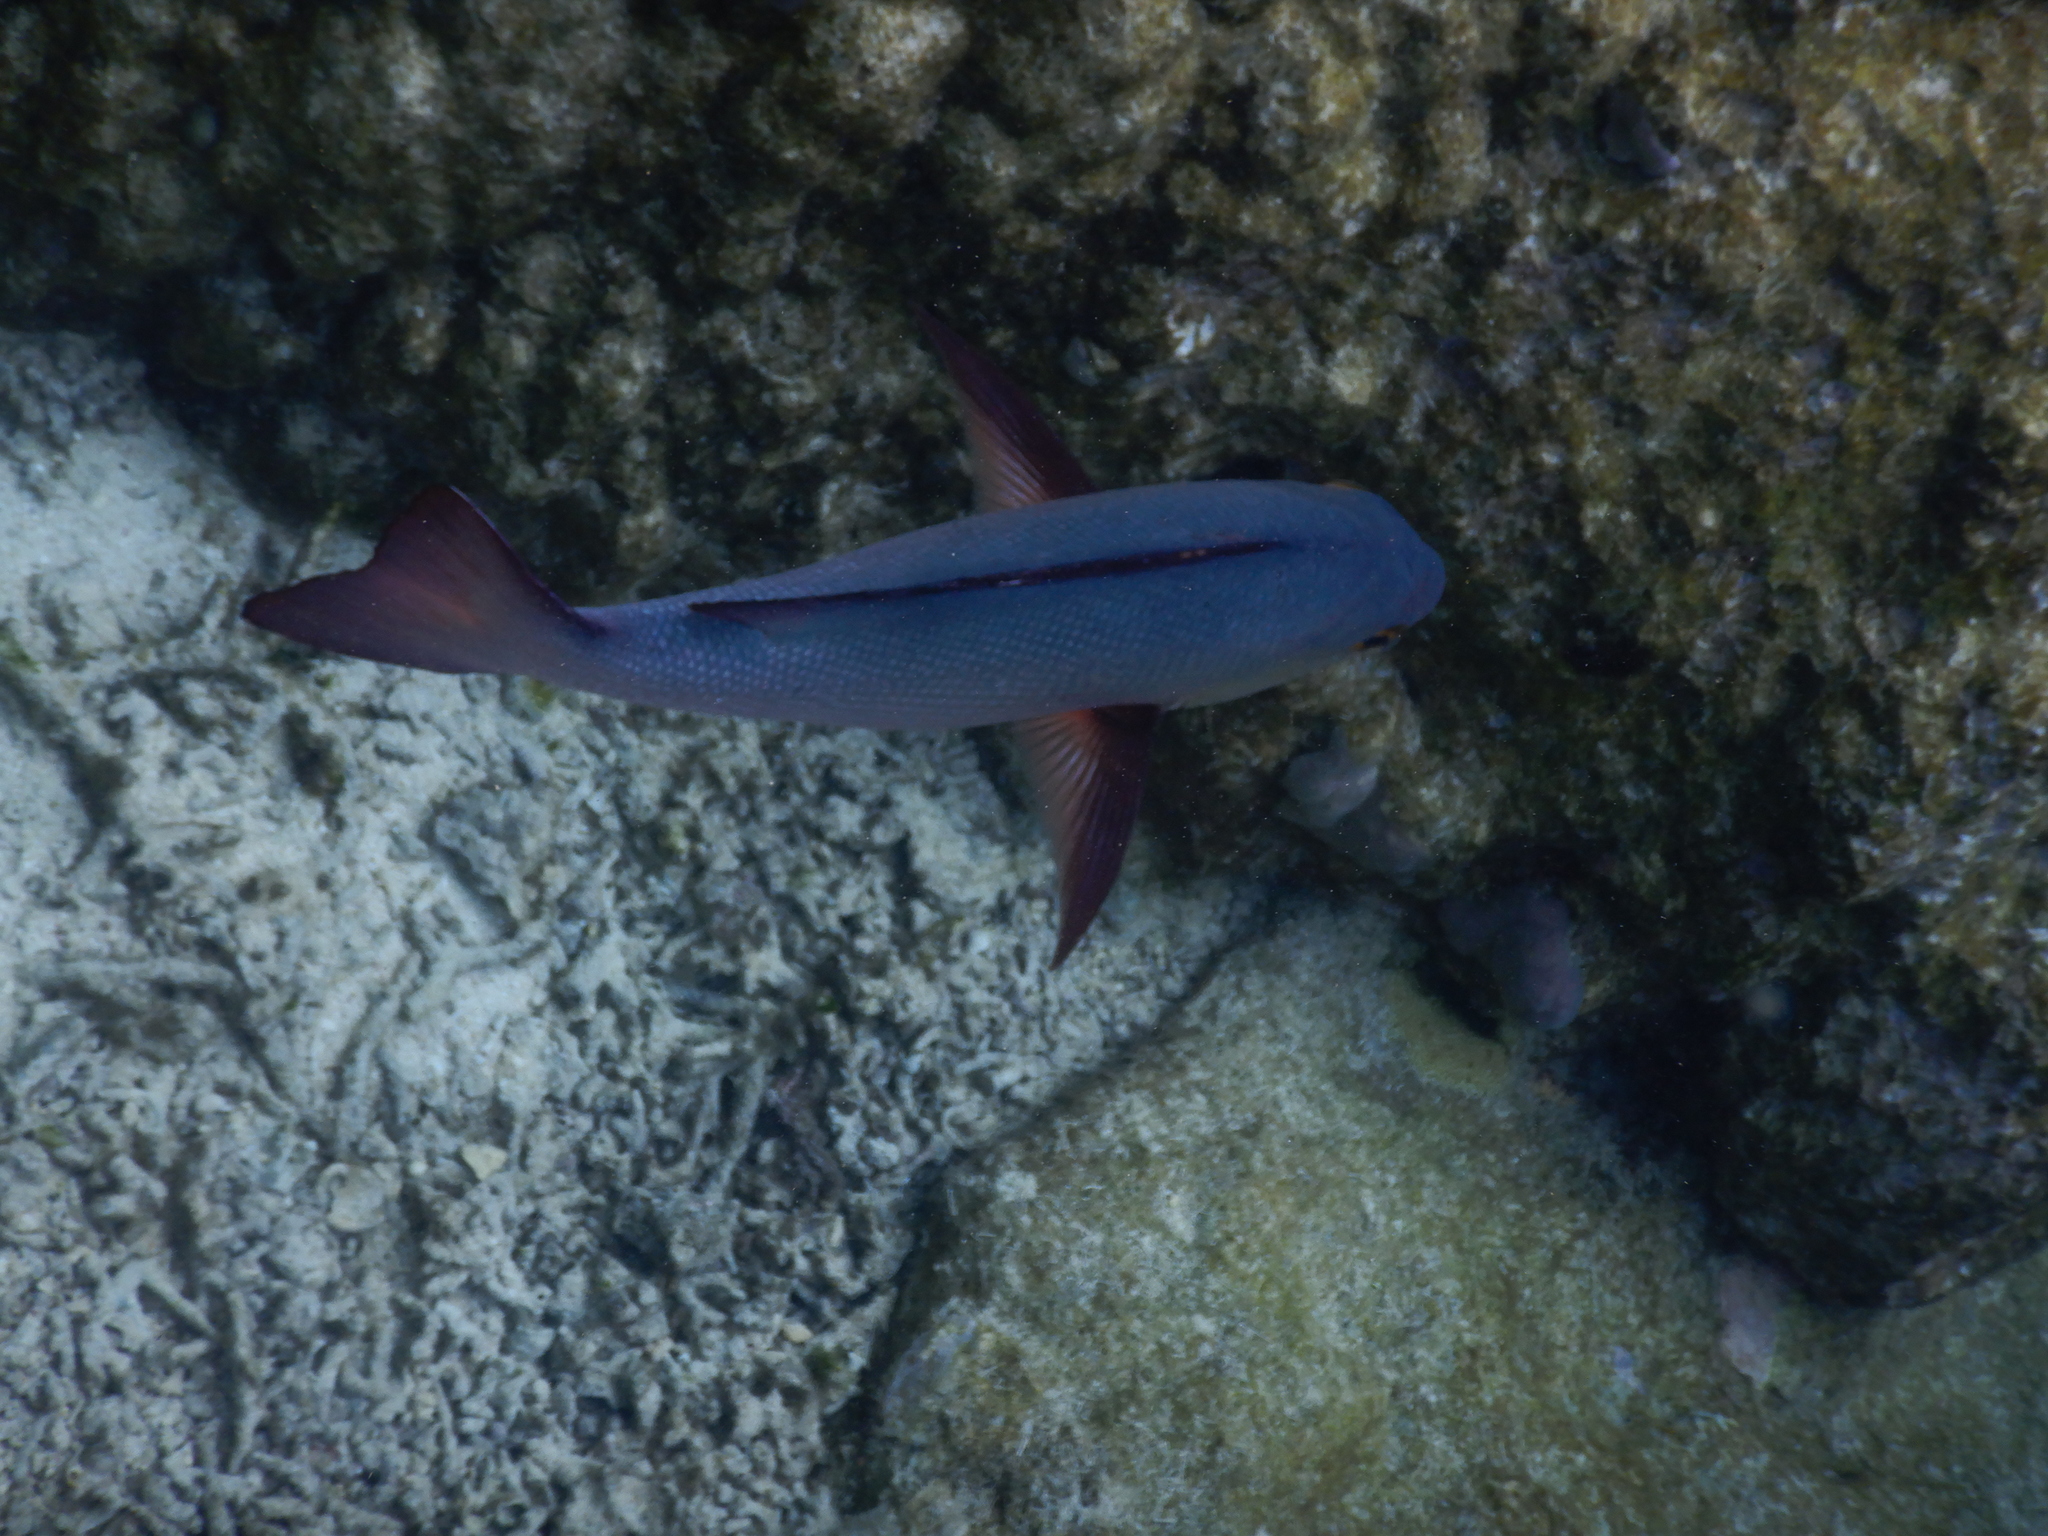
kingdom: Animalia
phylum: Chordata
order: Perciformes
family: Lutjanidae
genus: Lutjanus
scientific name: Lutjanus bohar
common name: Red bass
